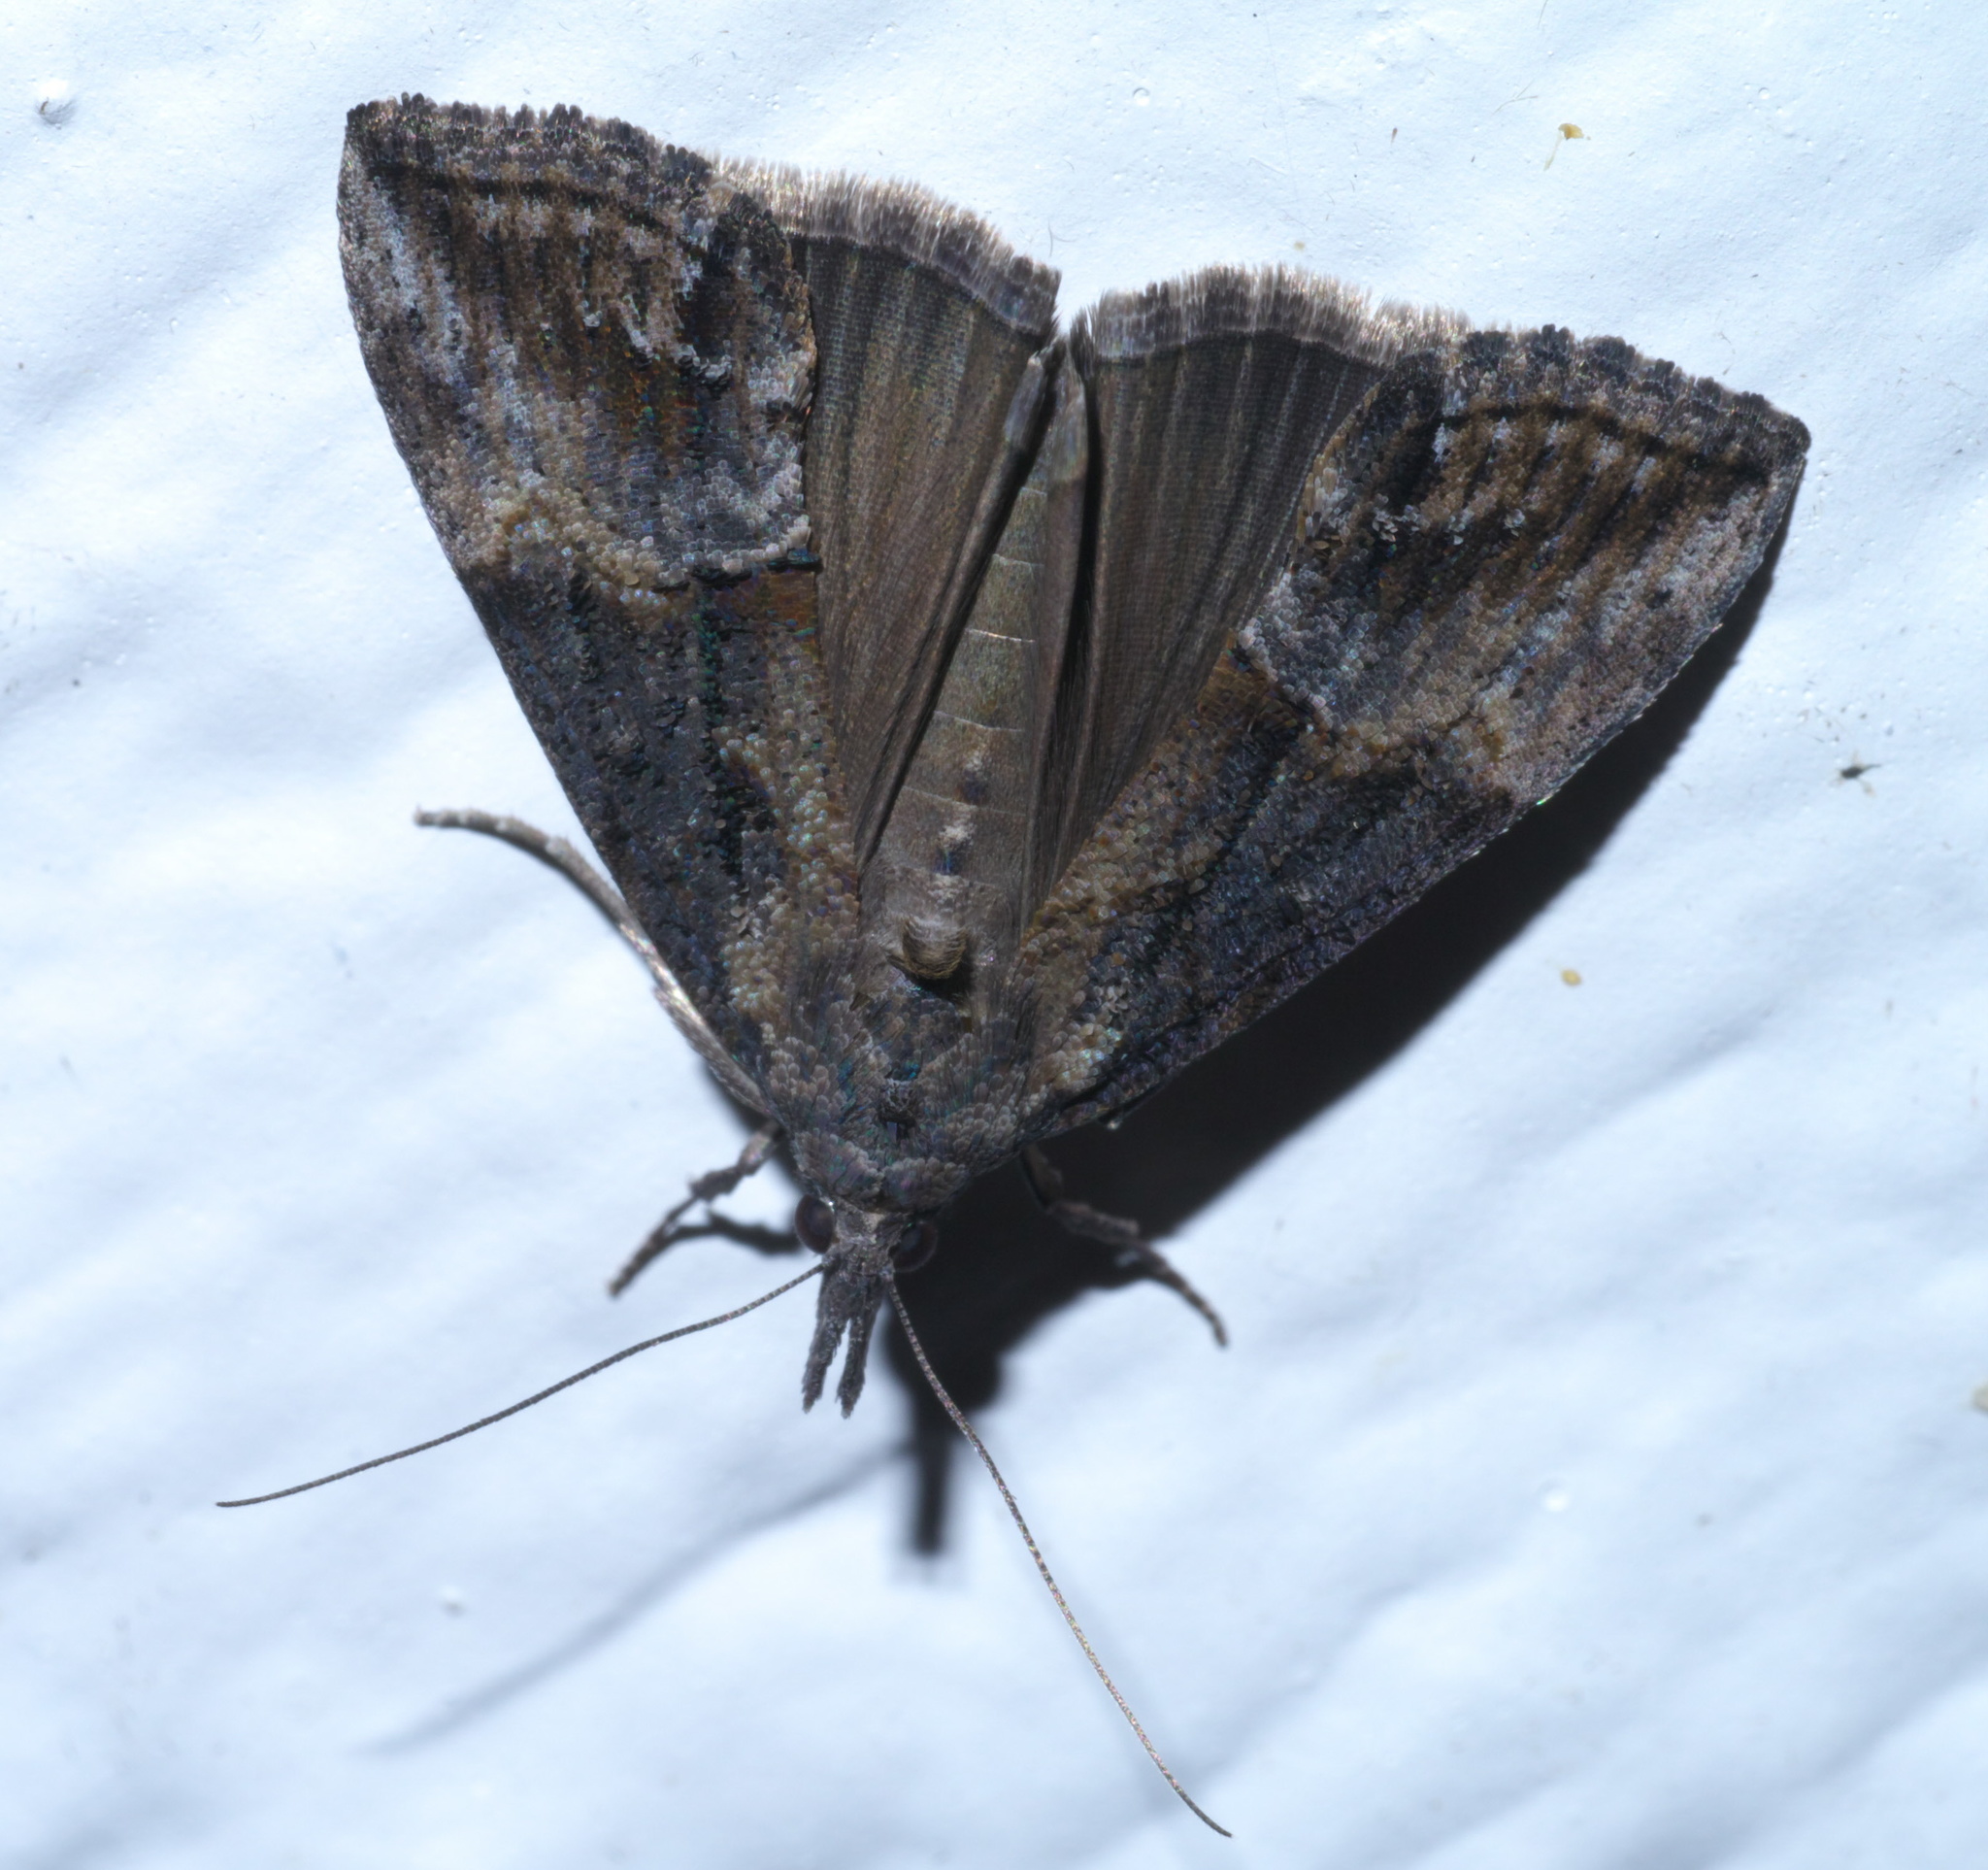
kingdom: Animalia
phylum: Arthropoda
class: Insecta
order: Lepidoptera
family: Erebidae
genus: Hypena
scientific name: Hypena scabra
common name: Green cloverworm
